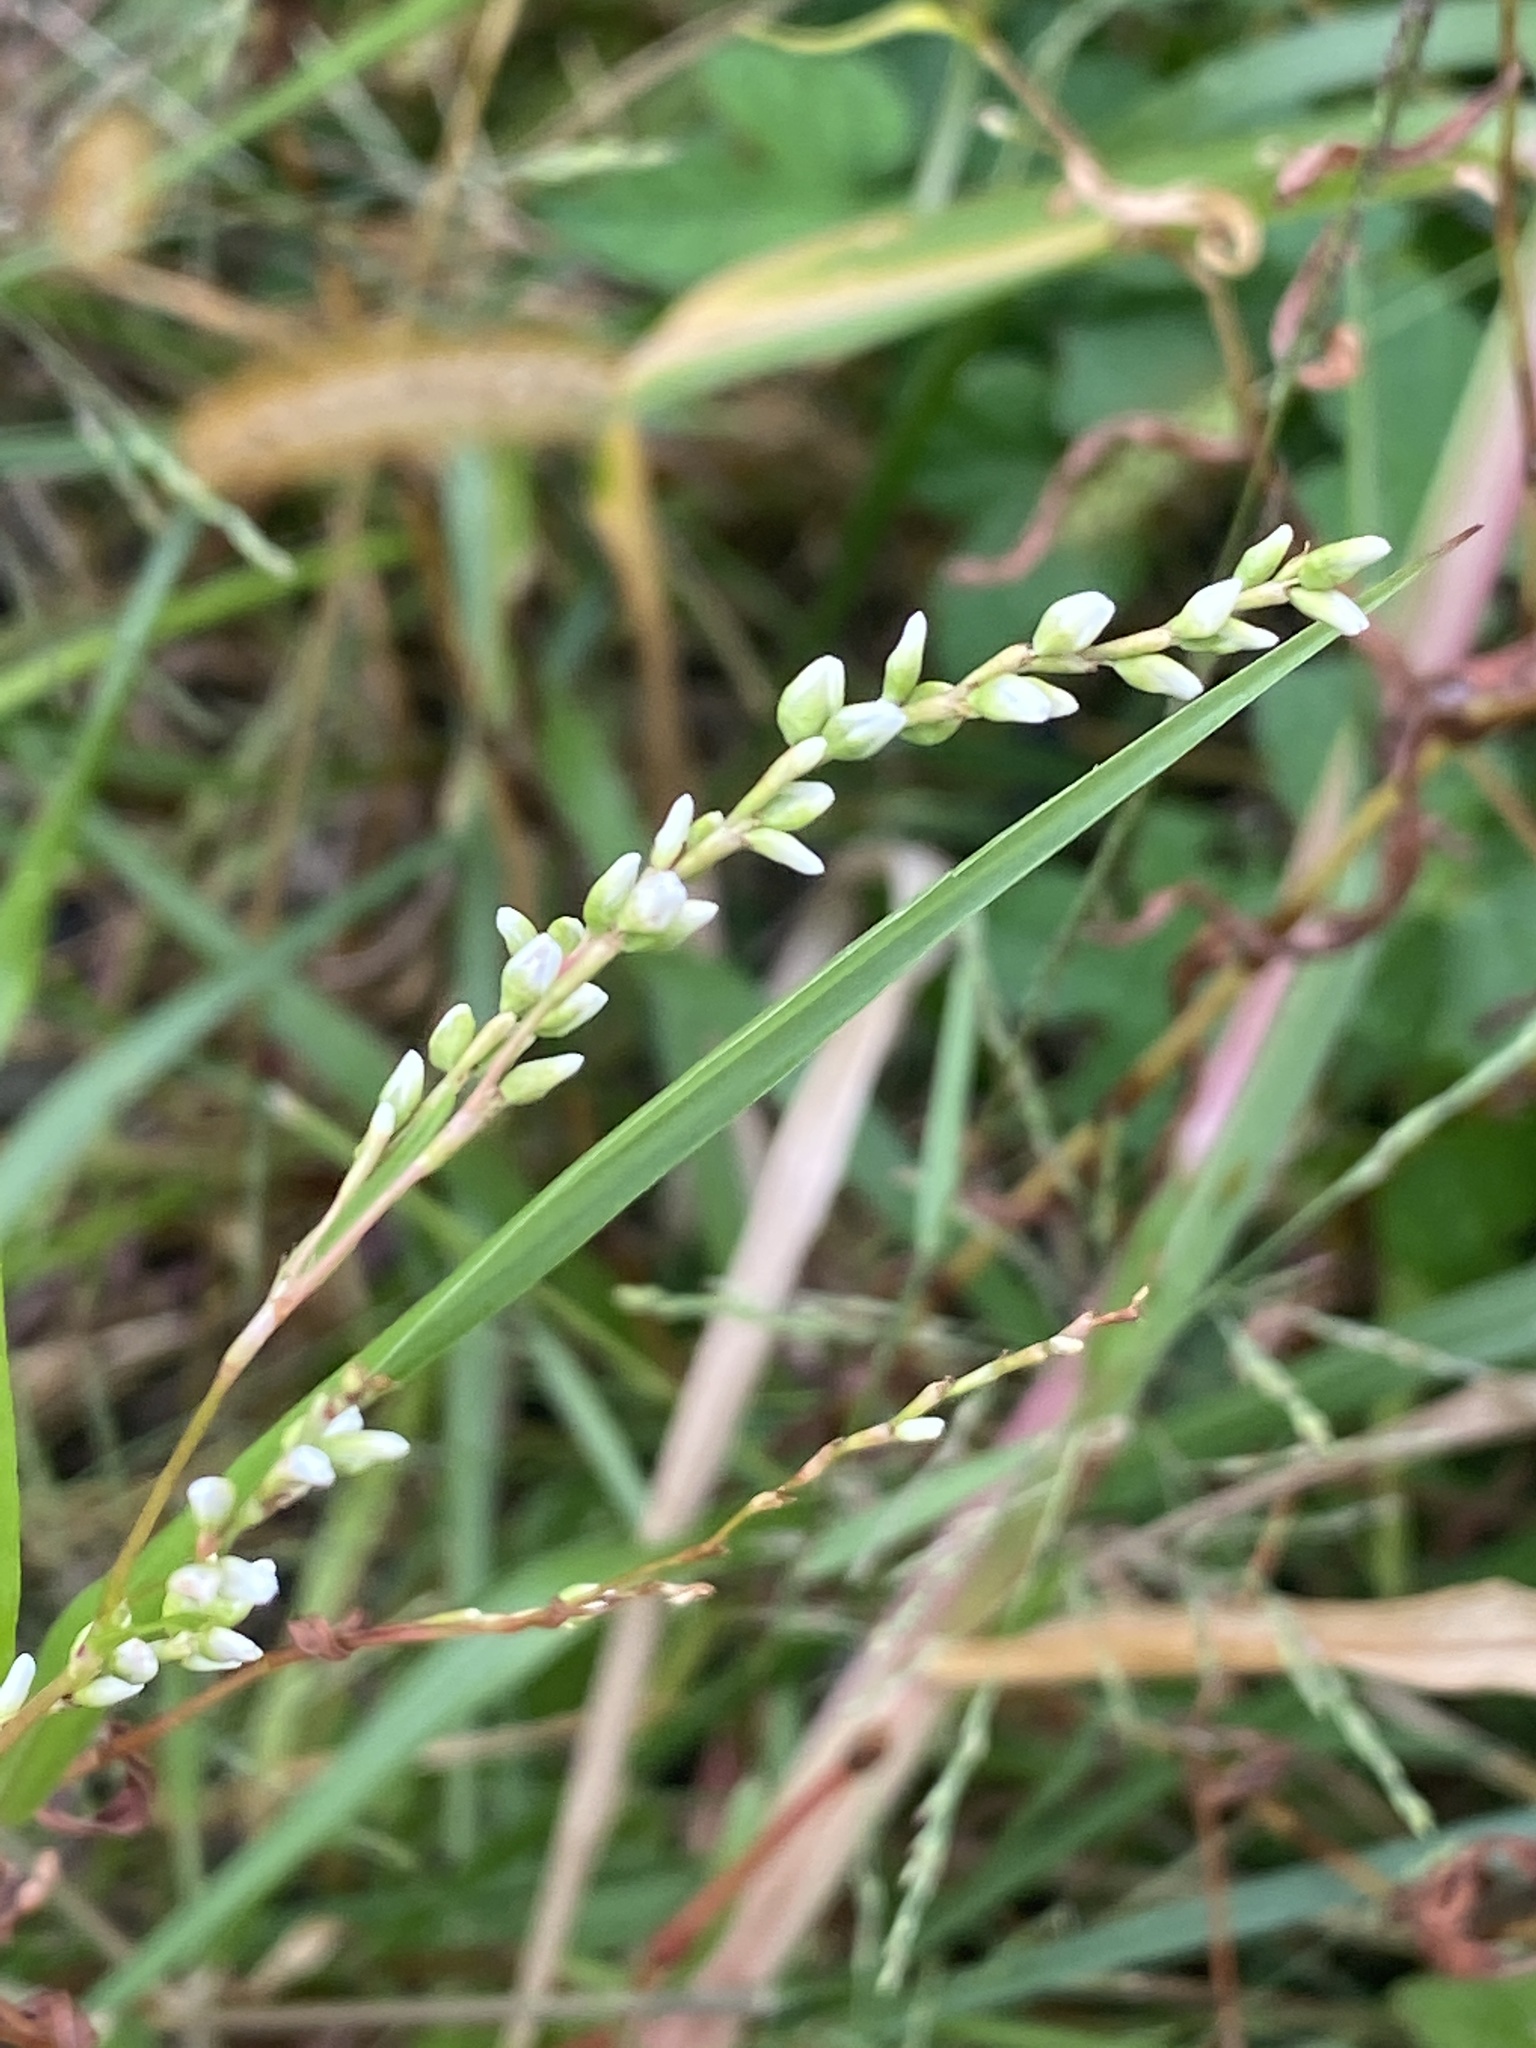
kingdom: Plantae
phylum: Tracheophyta
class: Magnoliopsida
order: Caryophyllales
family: Polygonaceae
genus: Persicaria
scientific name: Persicaria punctata
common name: Dotted smartweed
